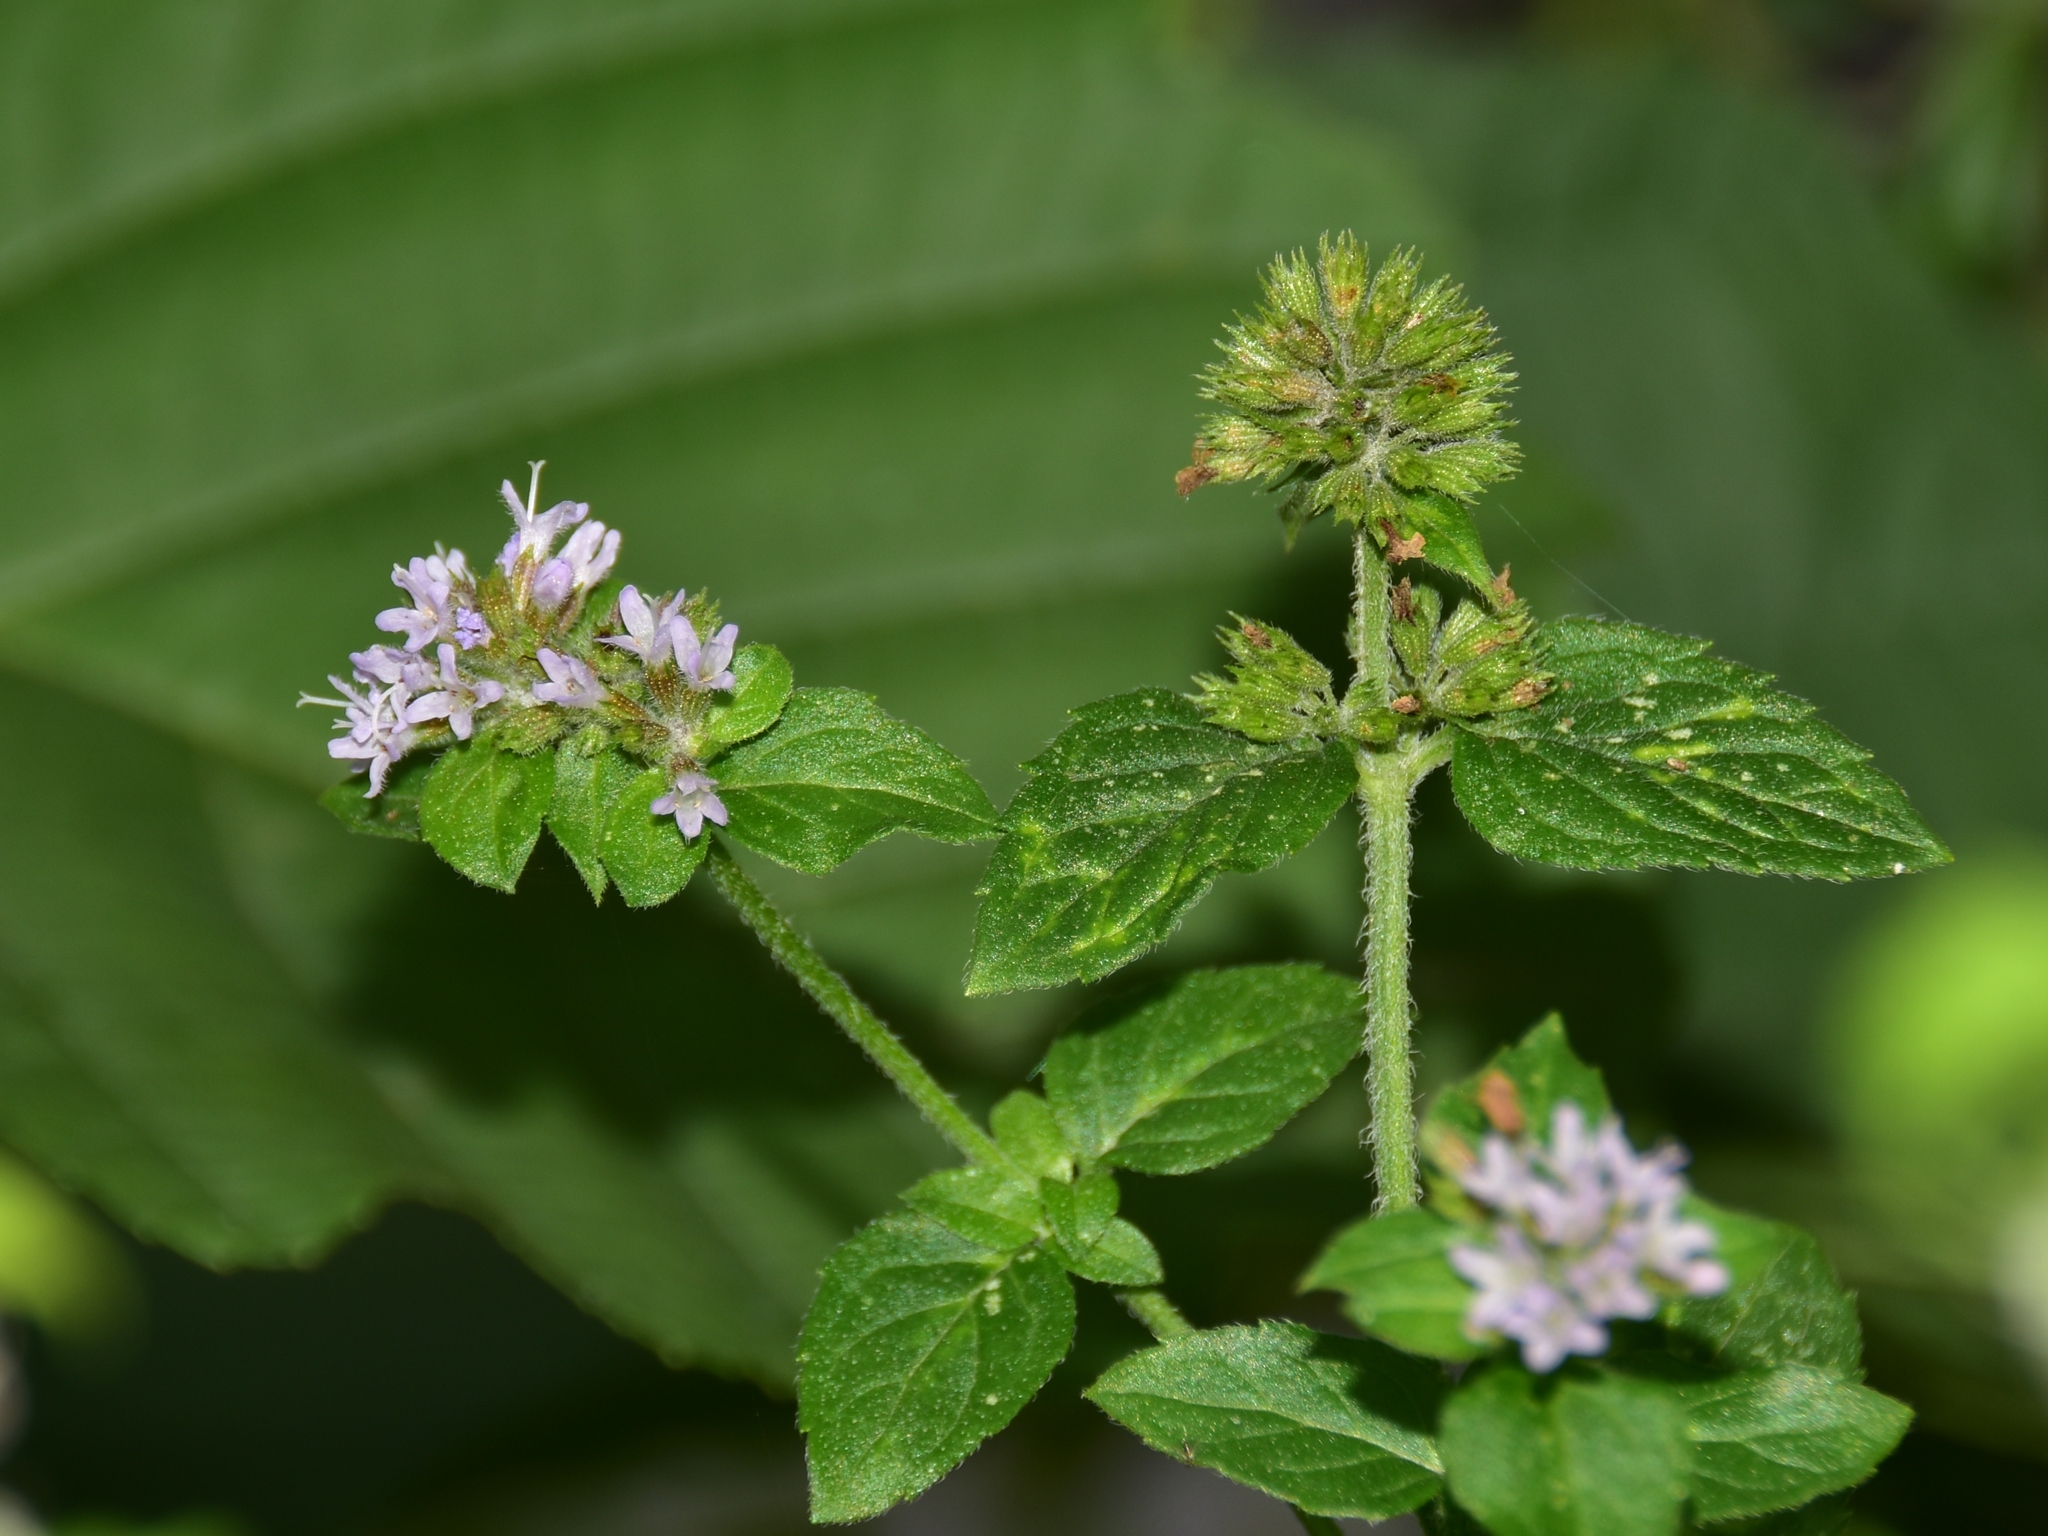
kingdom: Plantae
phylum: Tracheophyta
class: Magnoliopsida
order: Lamiales
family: Lamiaceae
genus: Mentha
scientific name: Mentha aquatica
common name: Water mint
